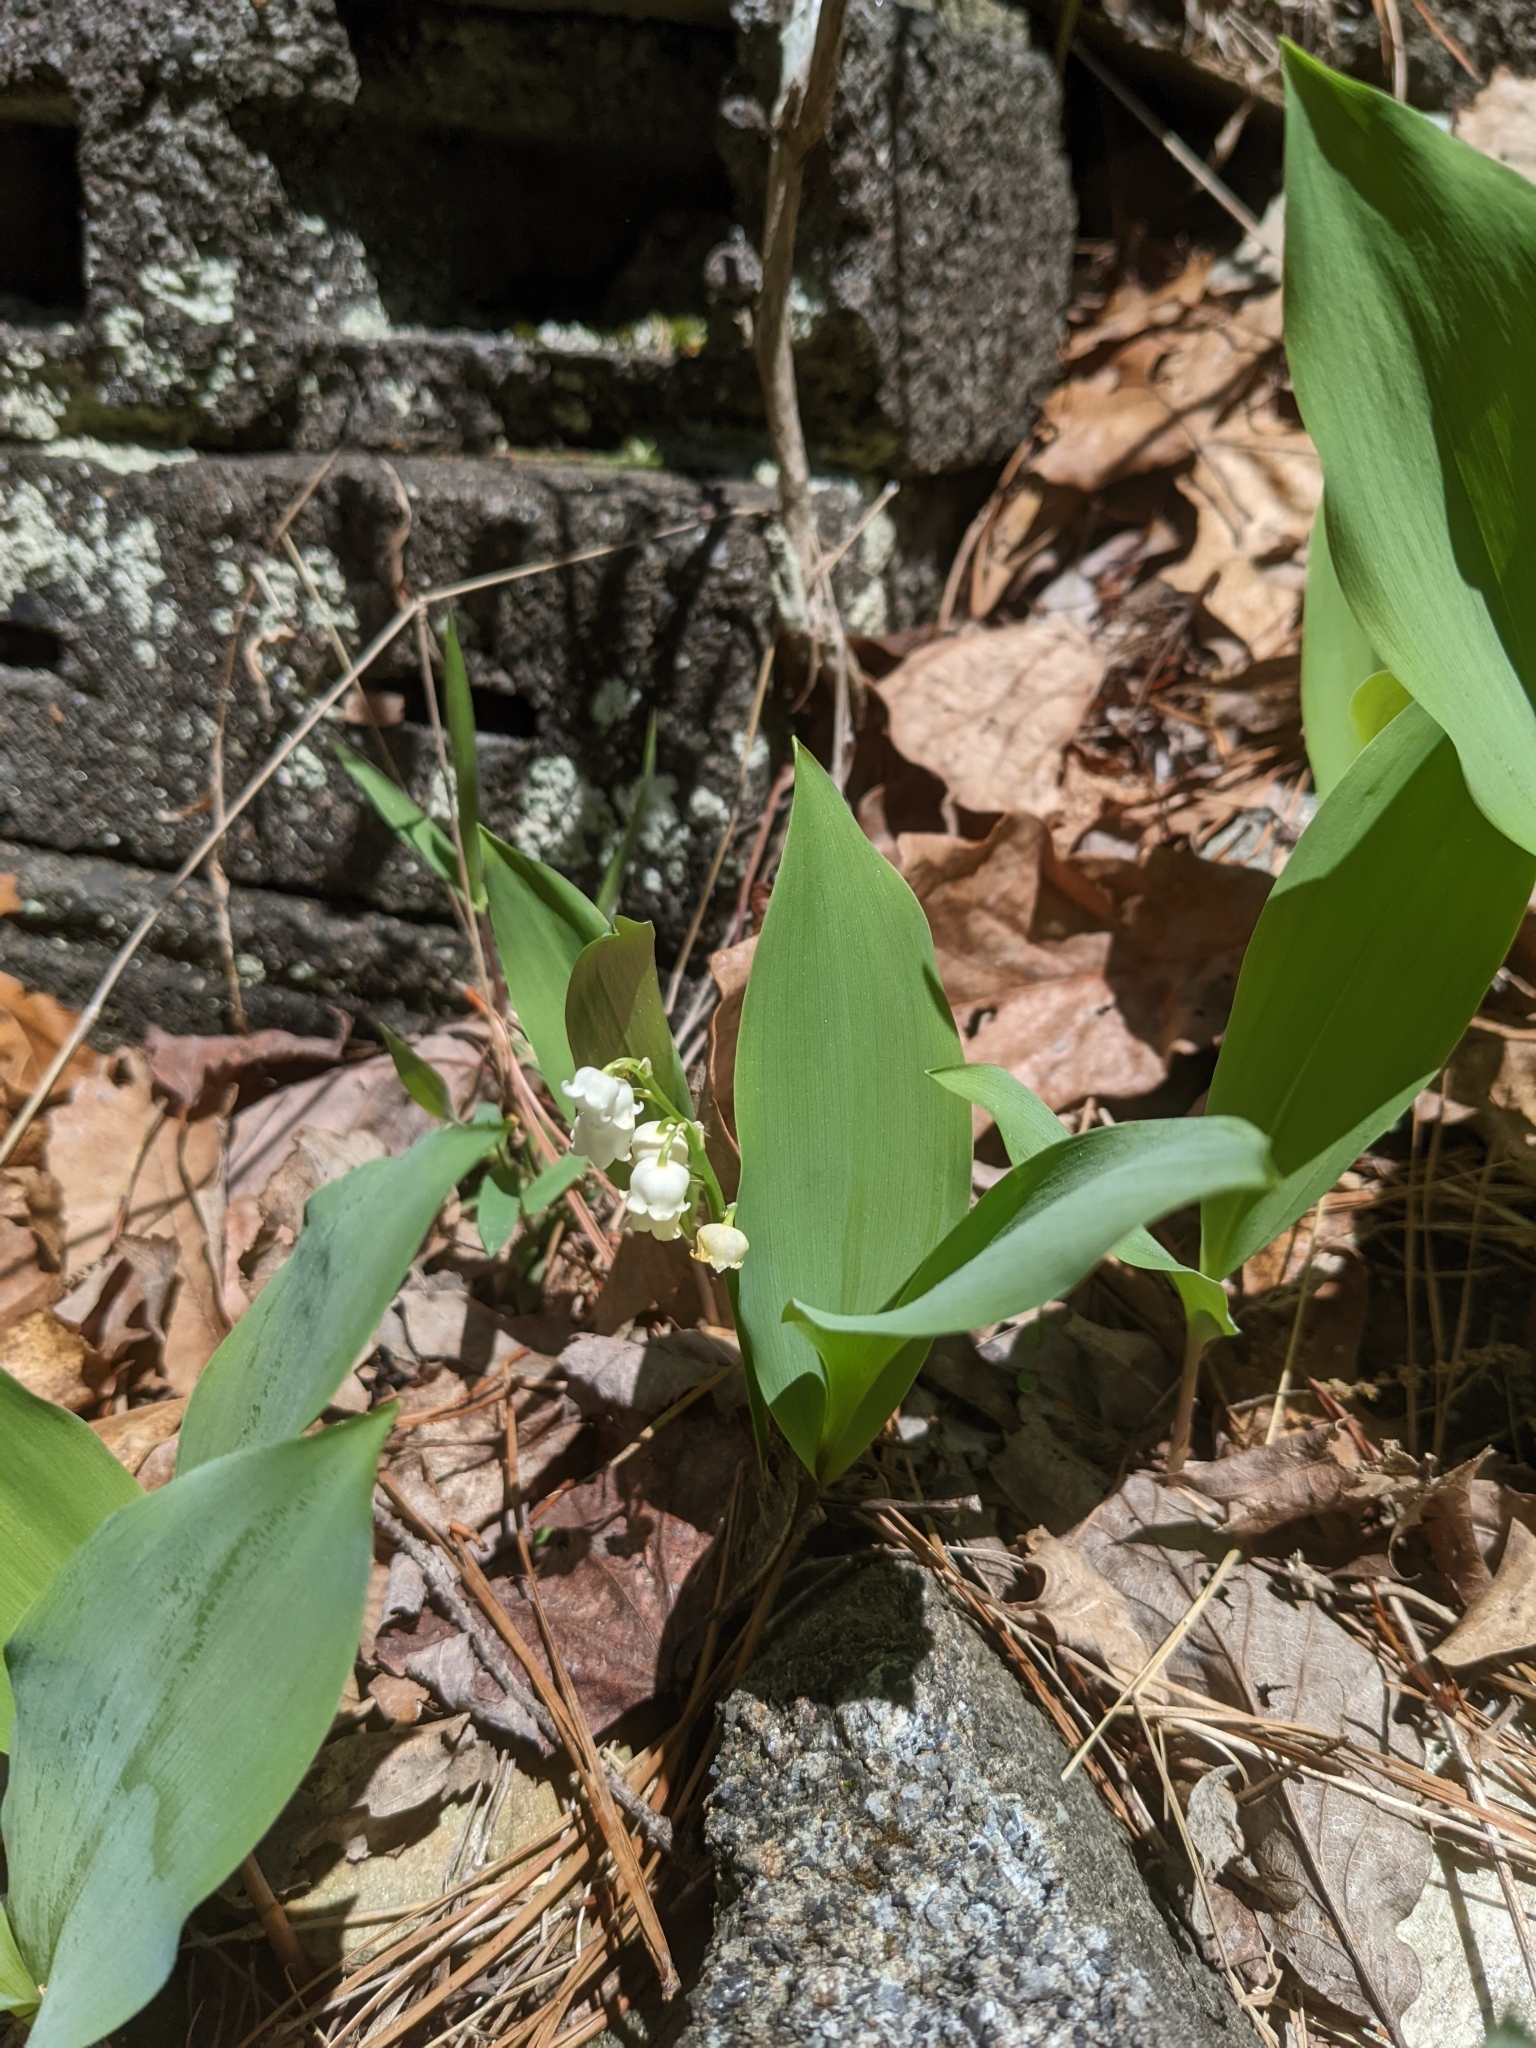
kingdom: Plantae
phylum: Tracheophyta
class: Liliopsida
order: Asparagales
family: Asparagaceae
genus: Convallaria
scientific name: Convallaria majalis
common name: Lily-of-the-valley
